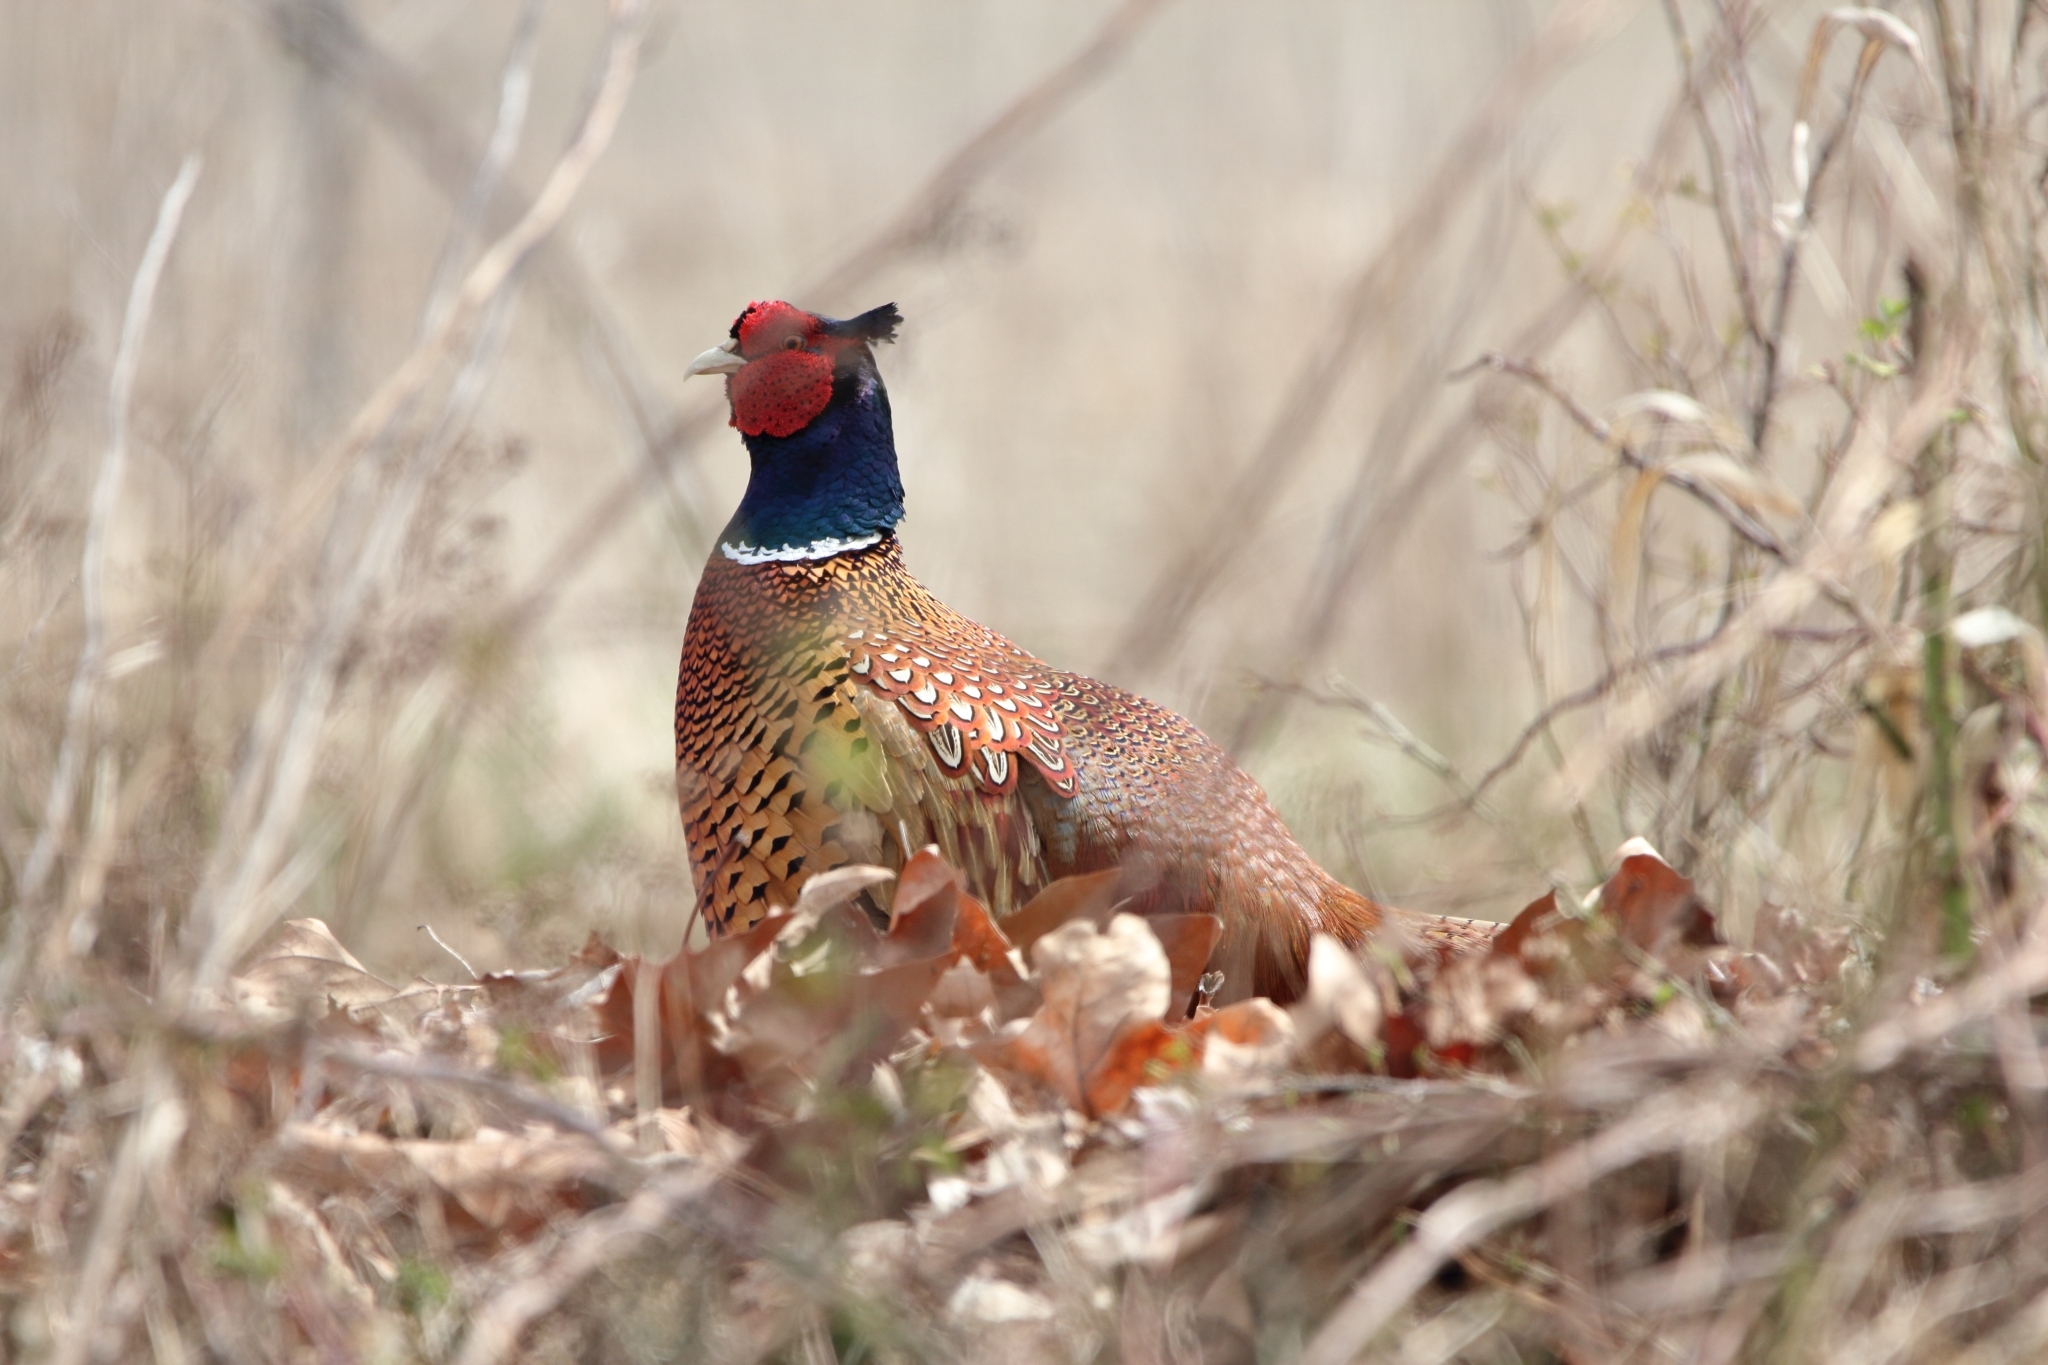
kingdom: Animalia
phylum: Chordata
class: Aves
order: Galliformes
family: Phasianidae
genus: Phasianus
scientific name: Phasianus colchicus
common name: Common pheasant
